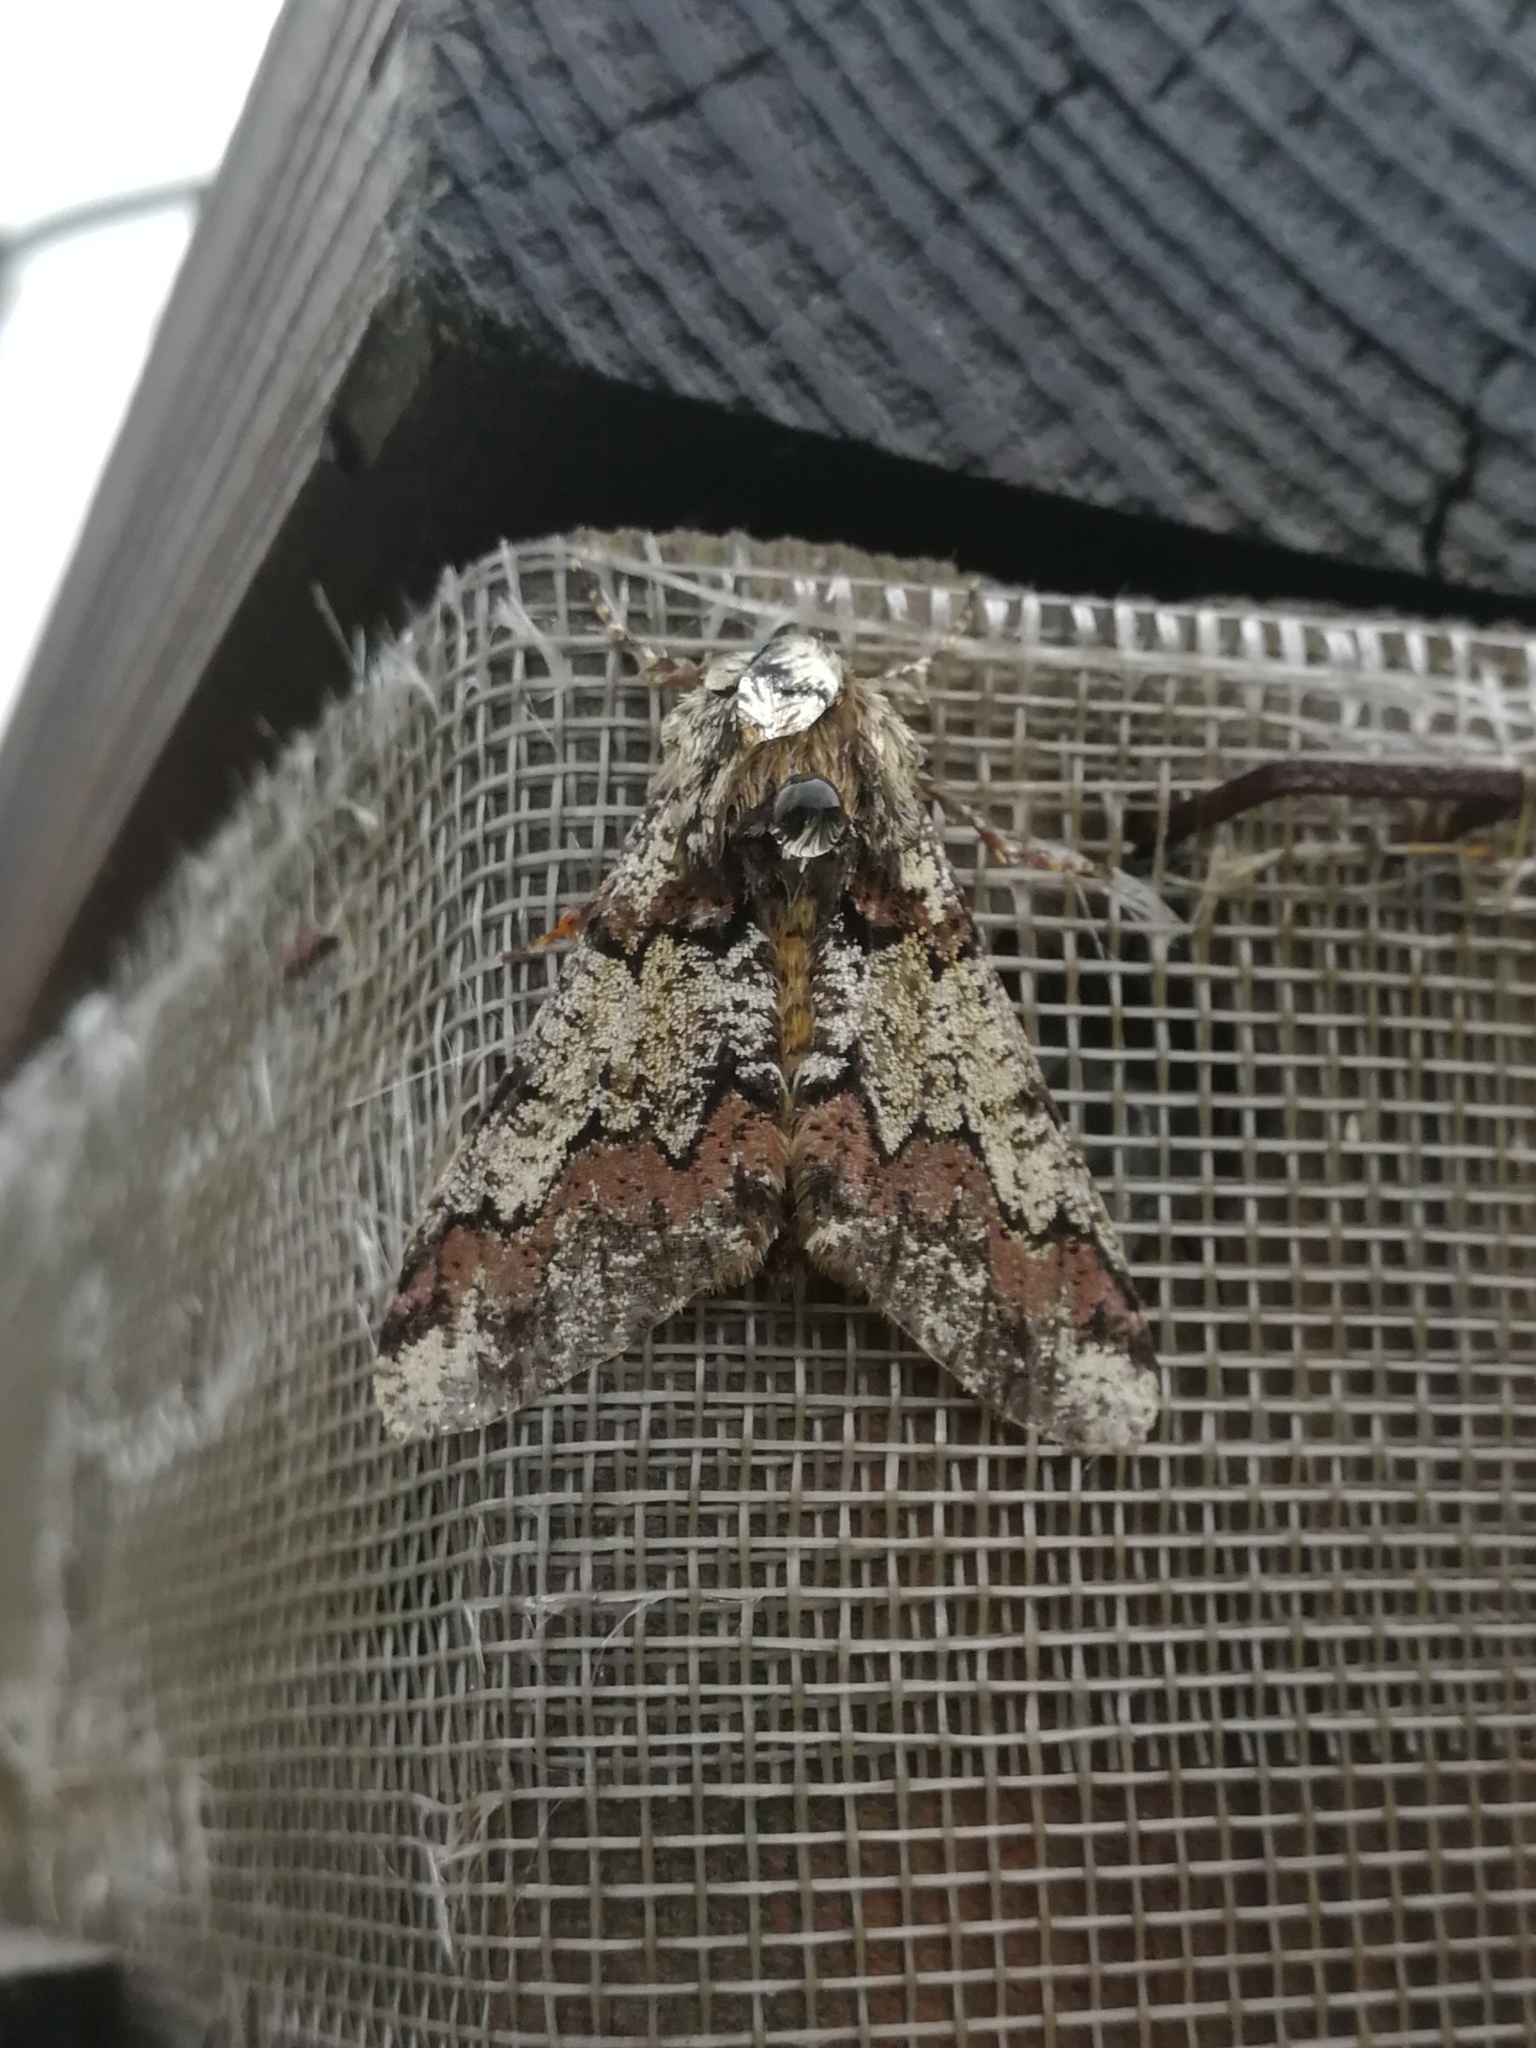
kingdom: Animalia
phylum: Arthropoda
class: Insecta
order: Lepidoptera
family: Geometridae
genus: Biston
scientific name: Biston strataria
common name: Oak beauty
